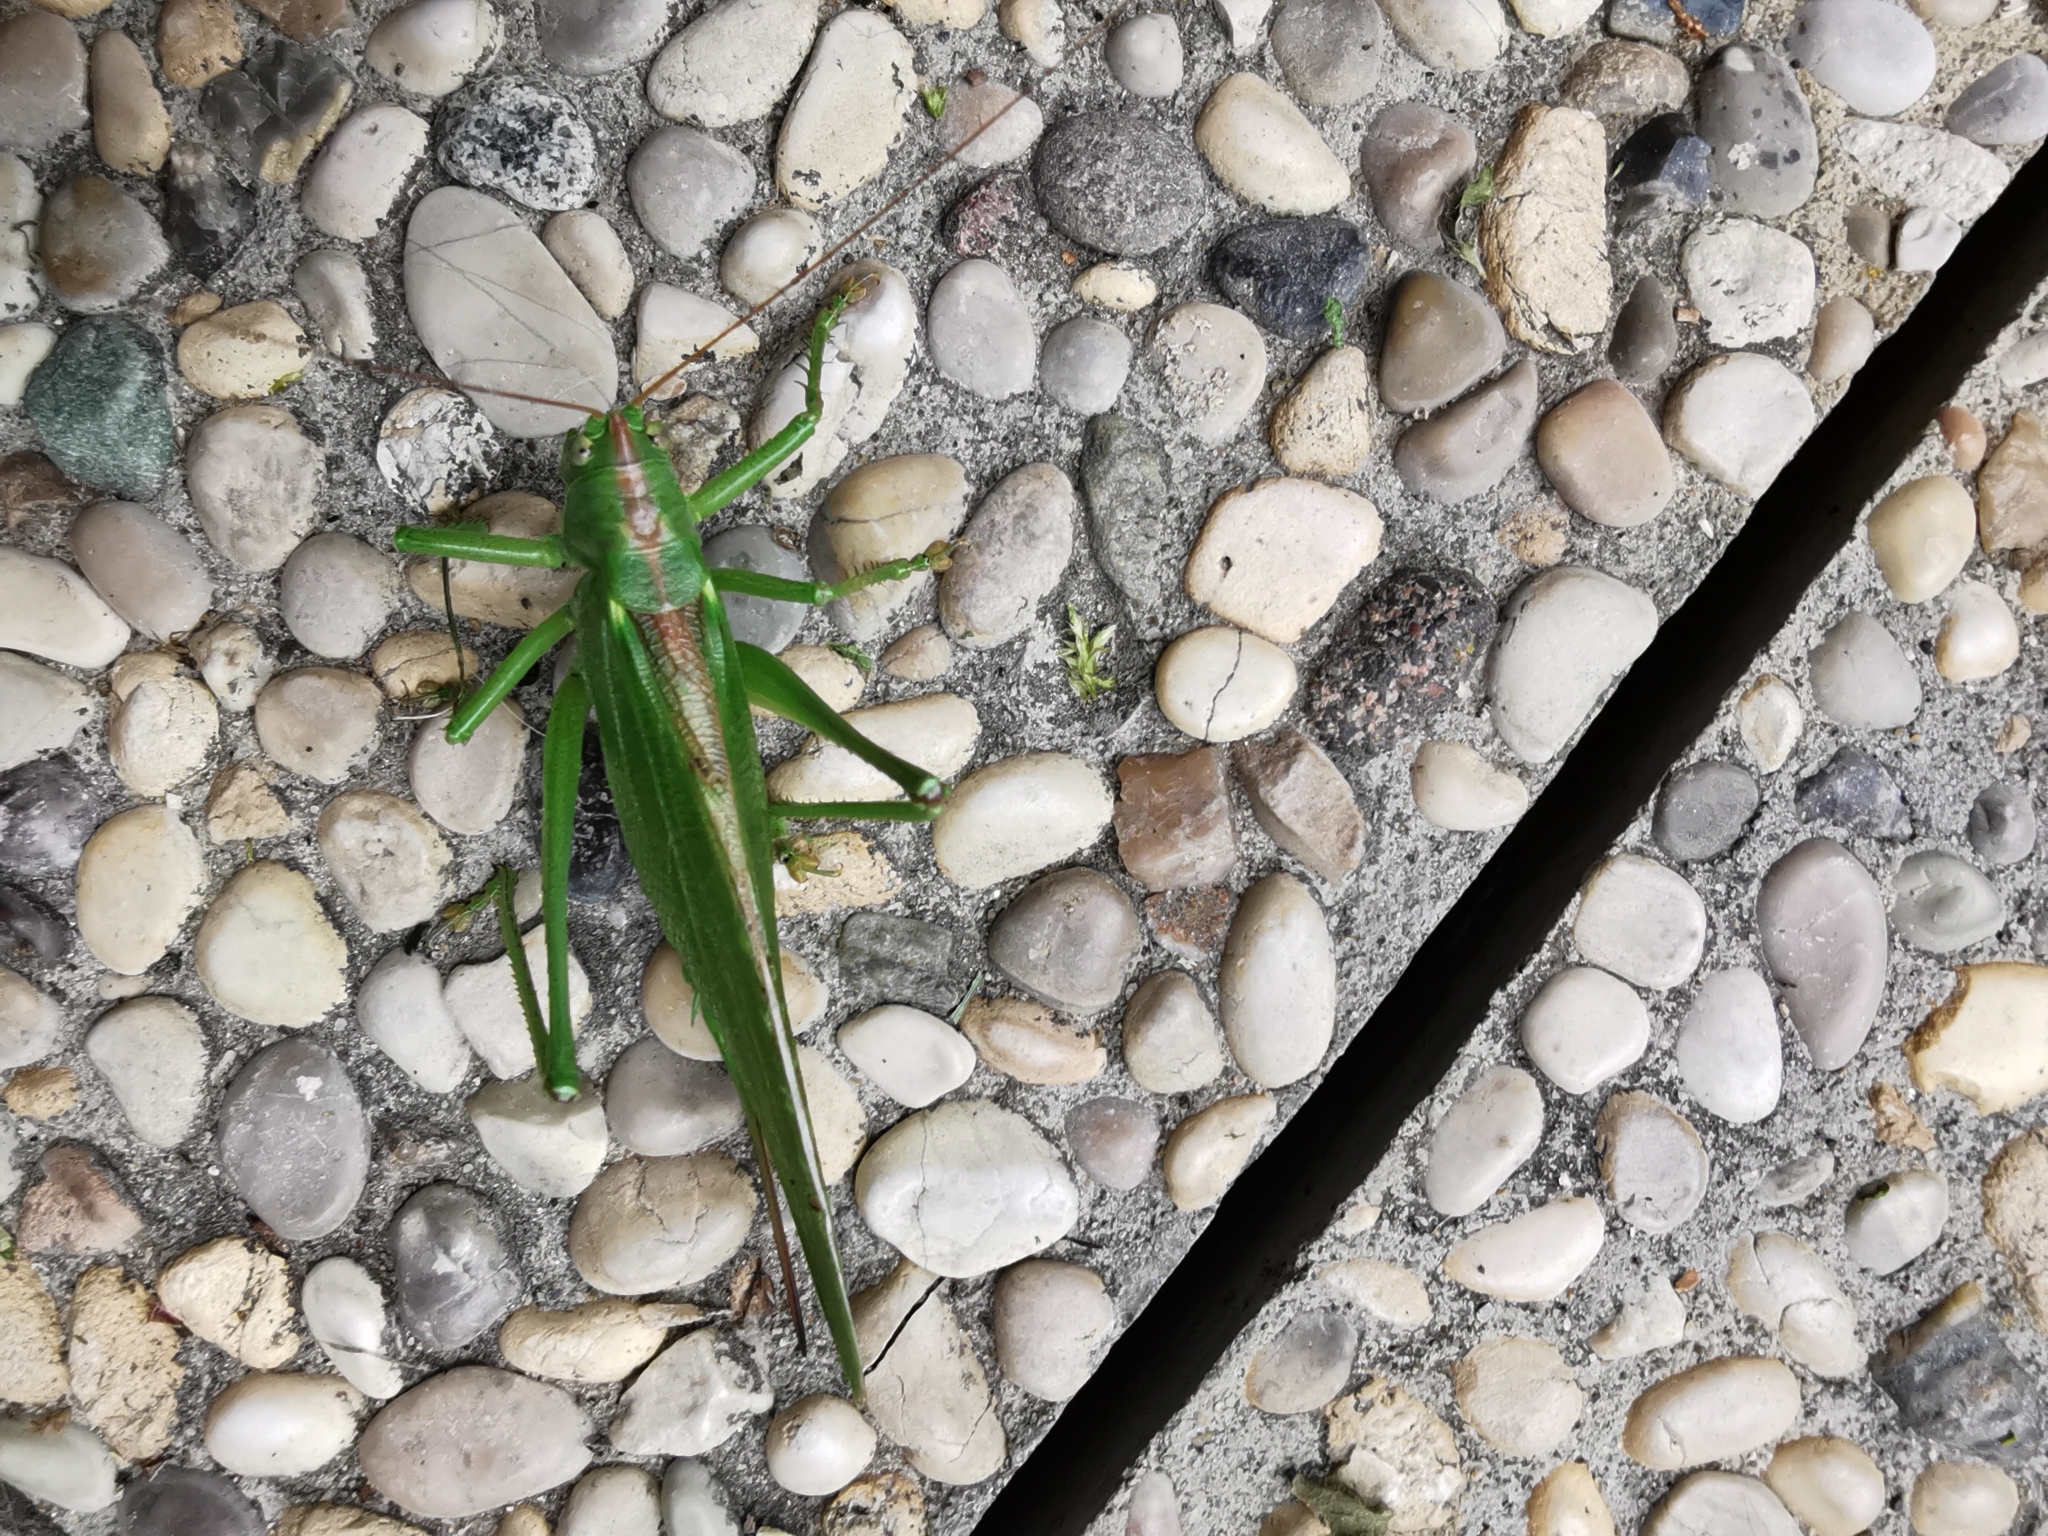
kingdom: Animalia
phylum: Arthropoda
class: Insecta
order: Orthoptera
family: Tettigoniidae
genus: Tettigonia
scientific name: Tettigonia viridissima
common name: Great green bush-cricket
